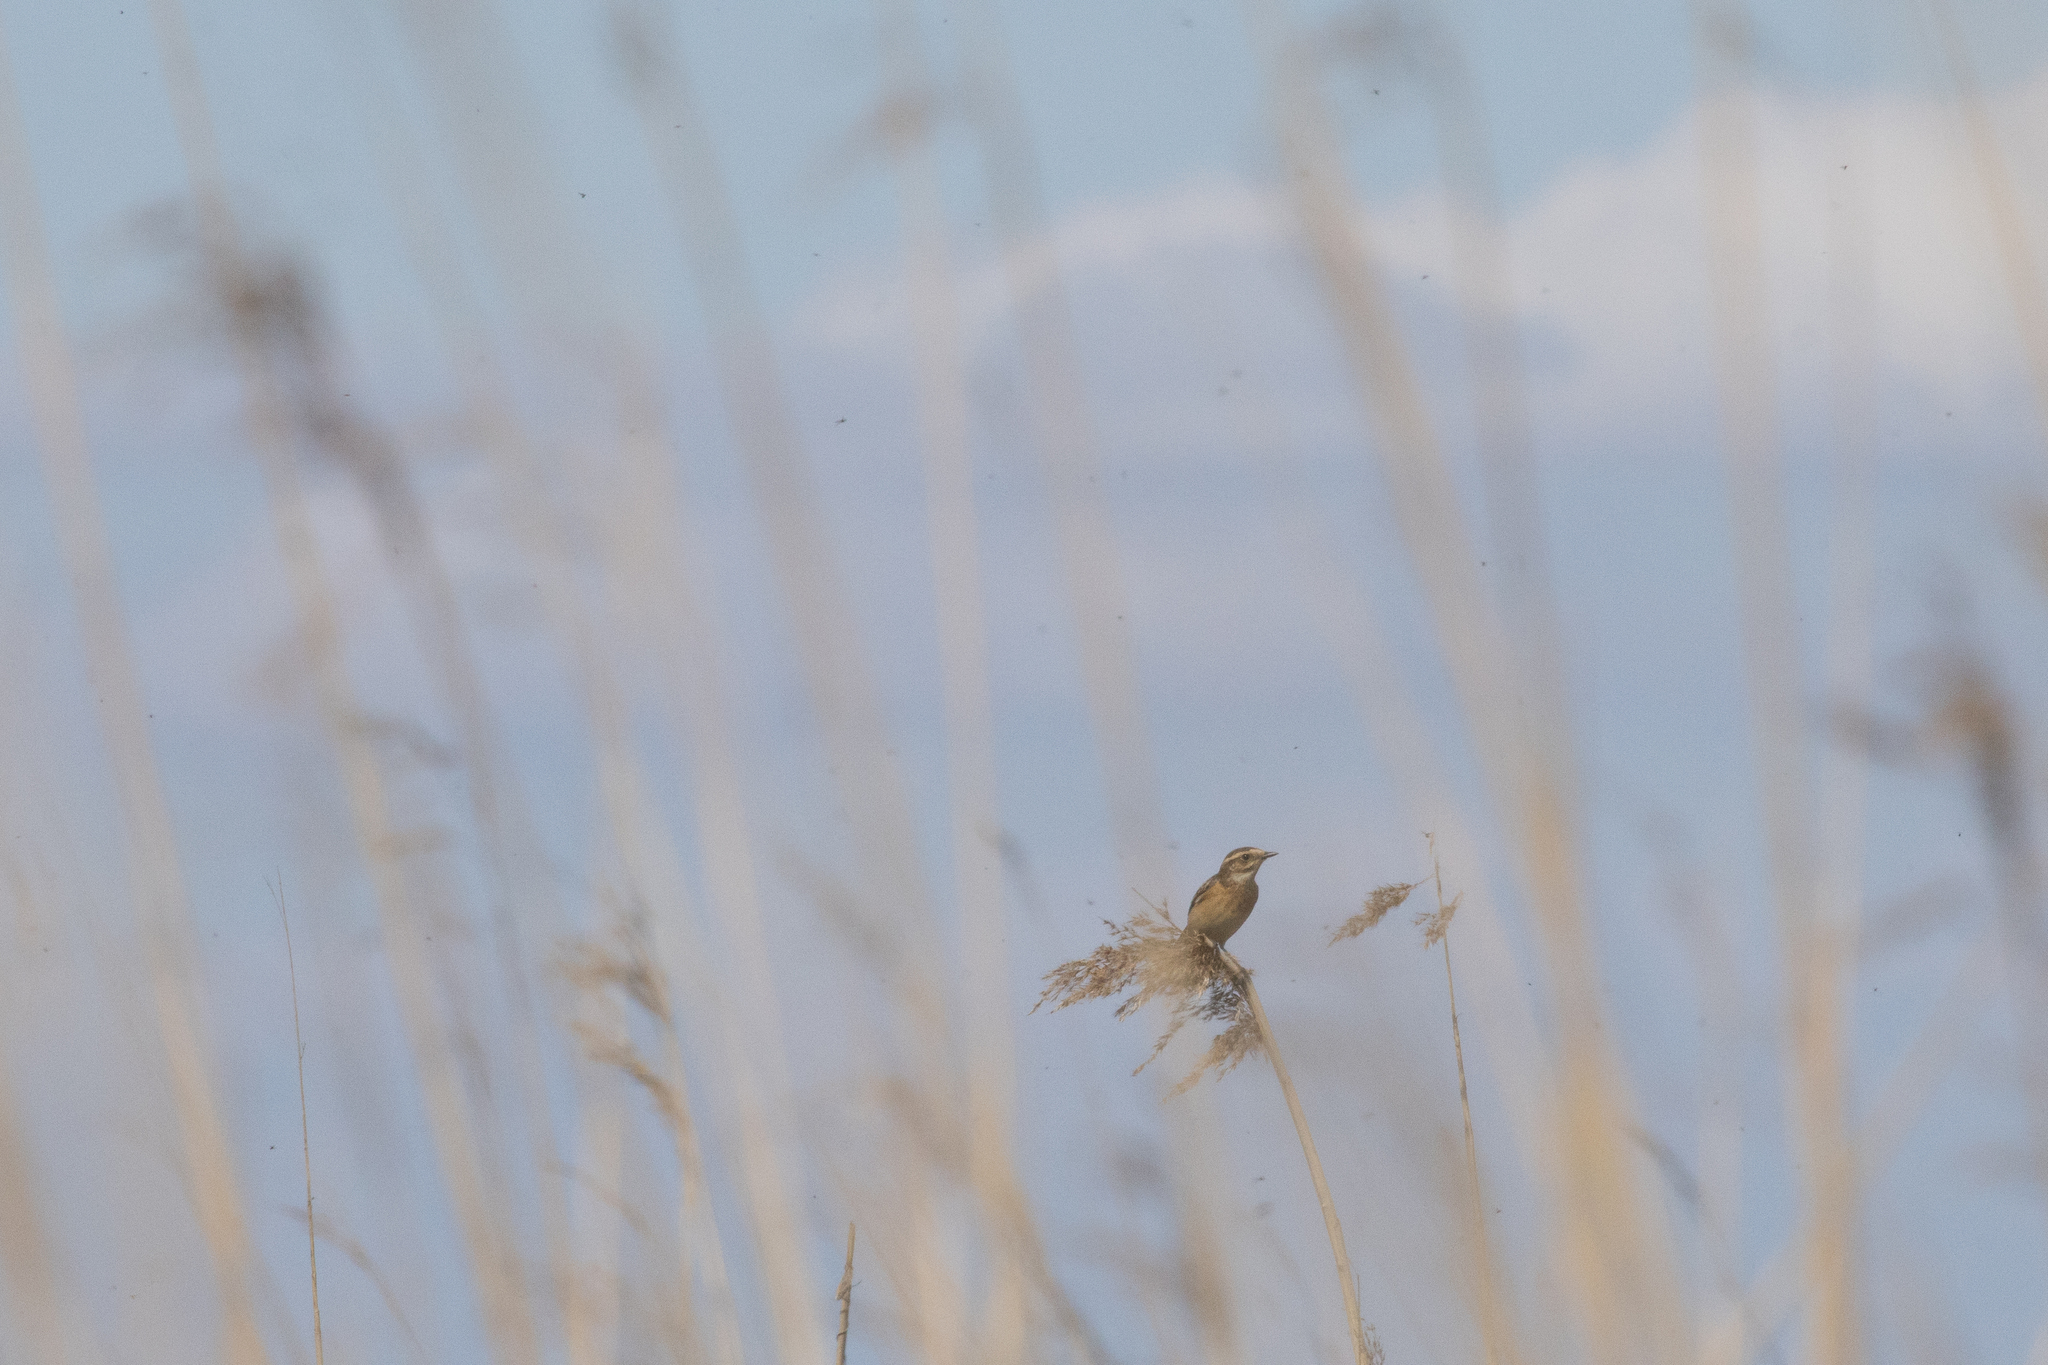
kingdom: Animalia
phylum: Chordata
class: Aves
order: Passeriformes
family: Muscicapidae
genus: Saxicola
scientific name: Saxicola rubetra
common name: Whinchat
